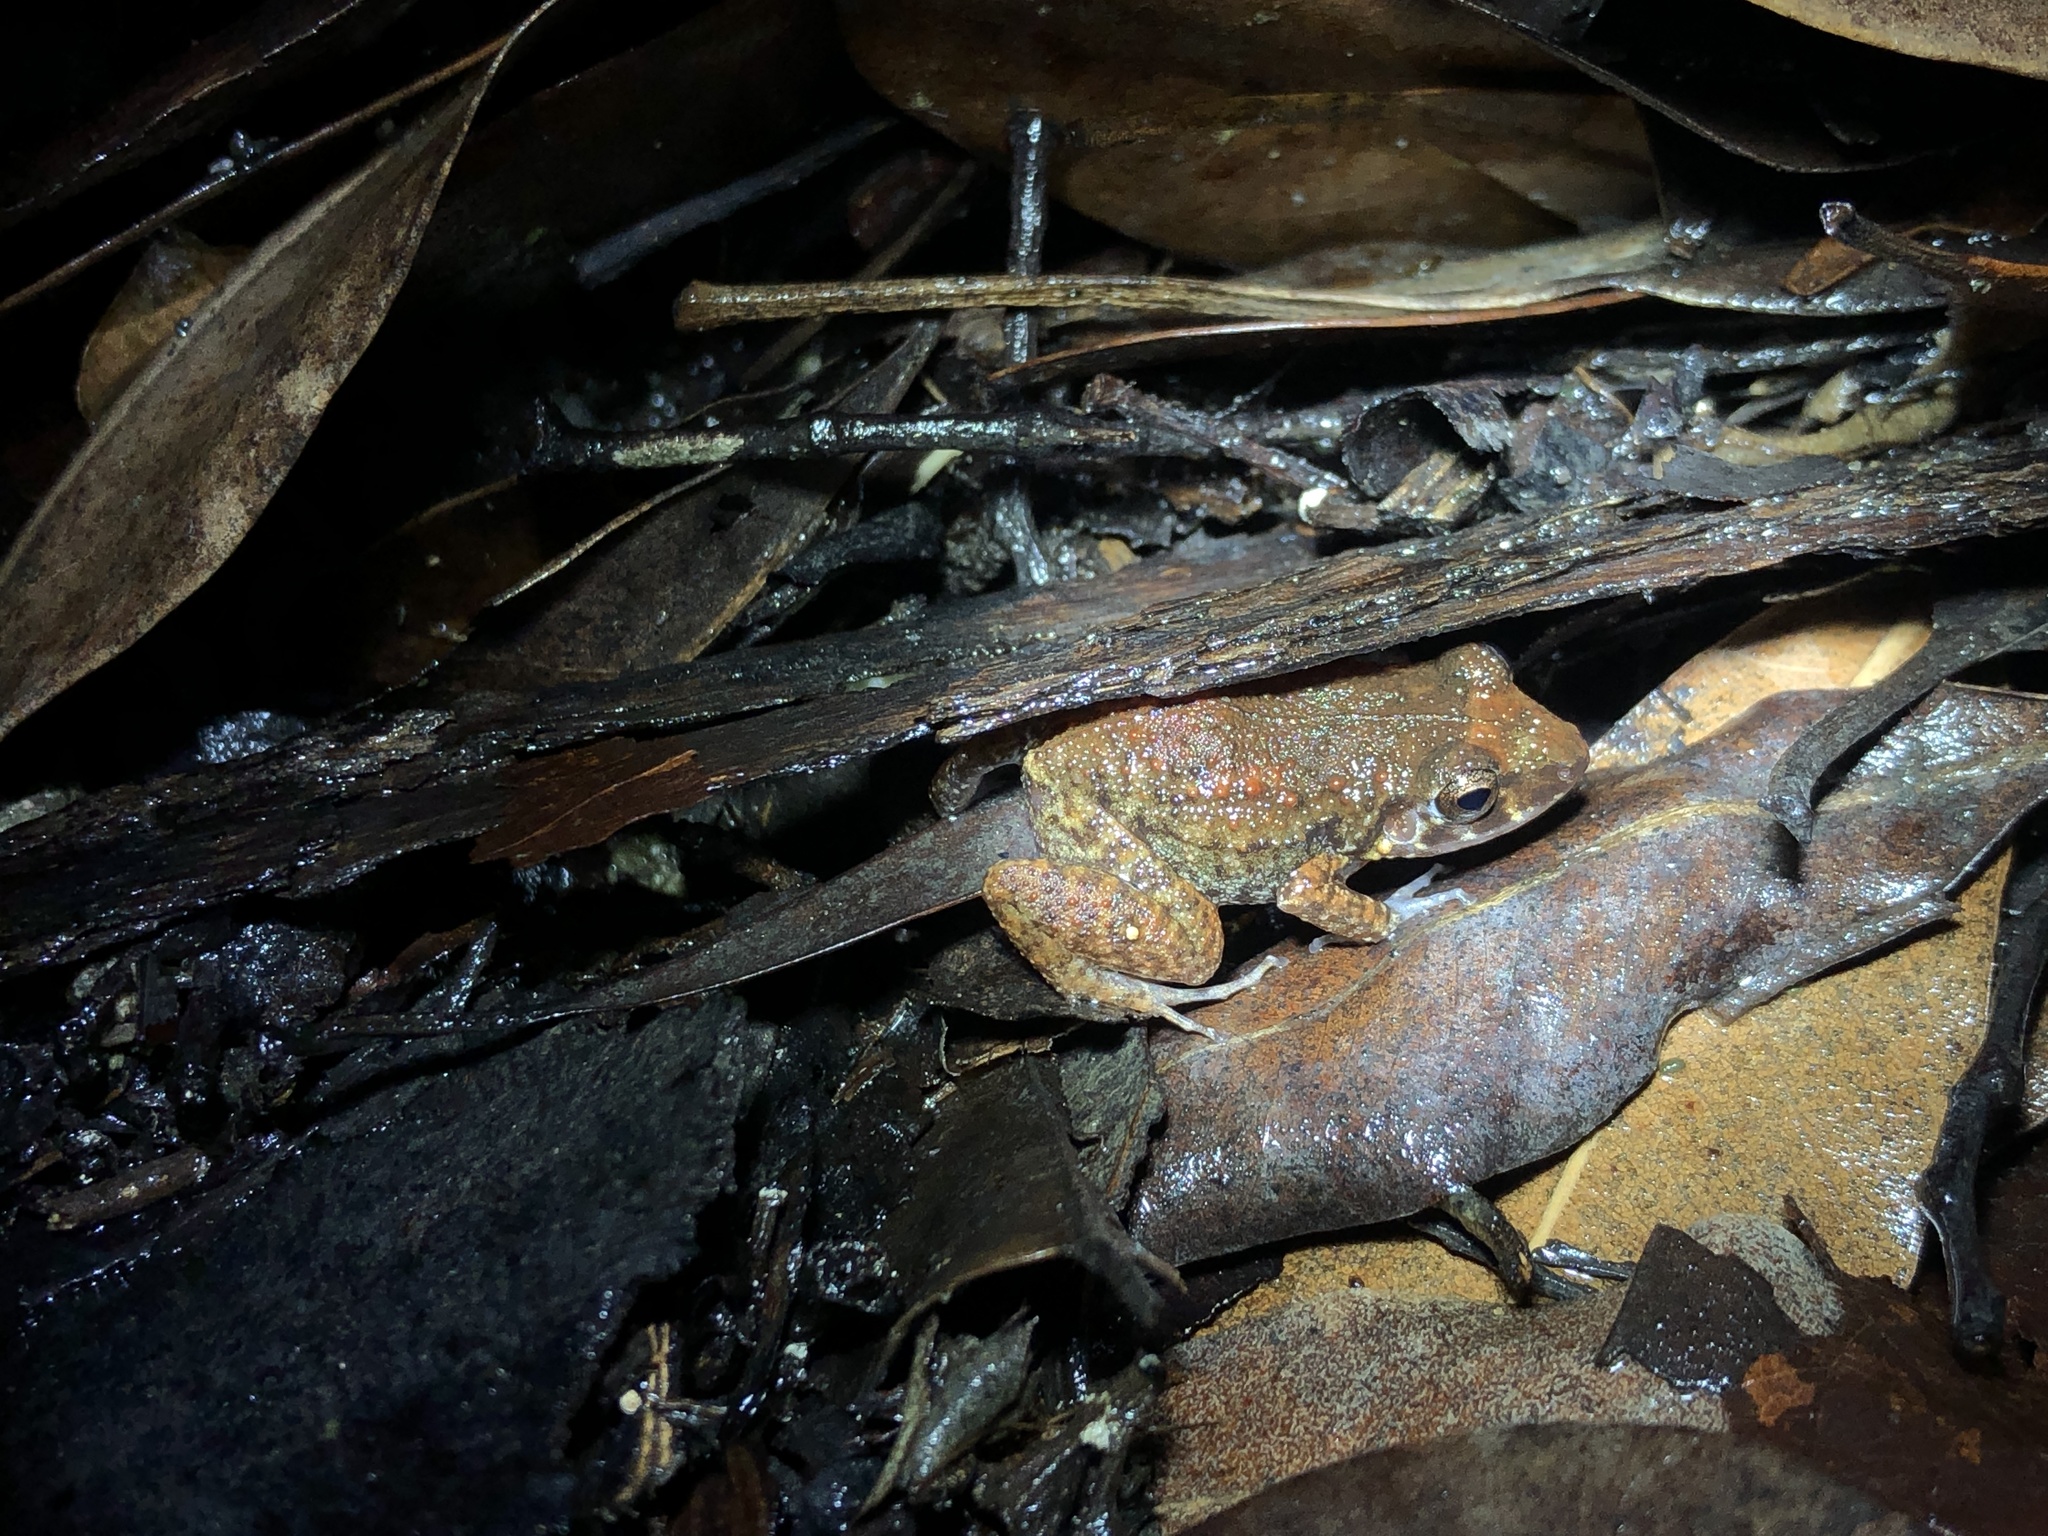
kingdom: Animalia
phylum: Chordata
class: Amphibia
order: Anura
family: Eleutherodactylidae
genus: Eleutherodactylus
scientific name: Eleutherodactylus planirostris
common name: Greenhouse frog
